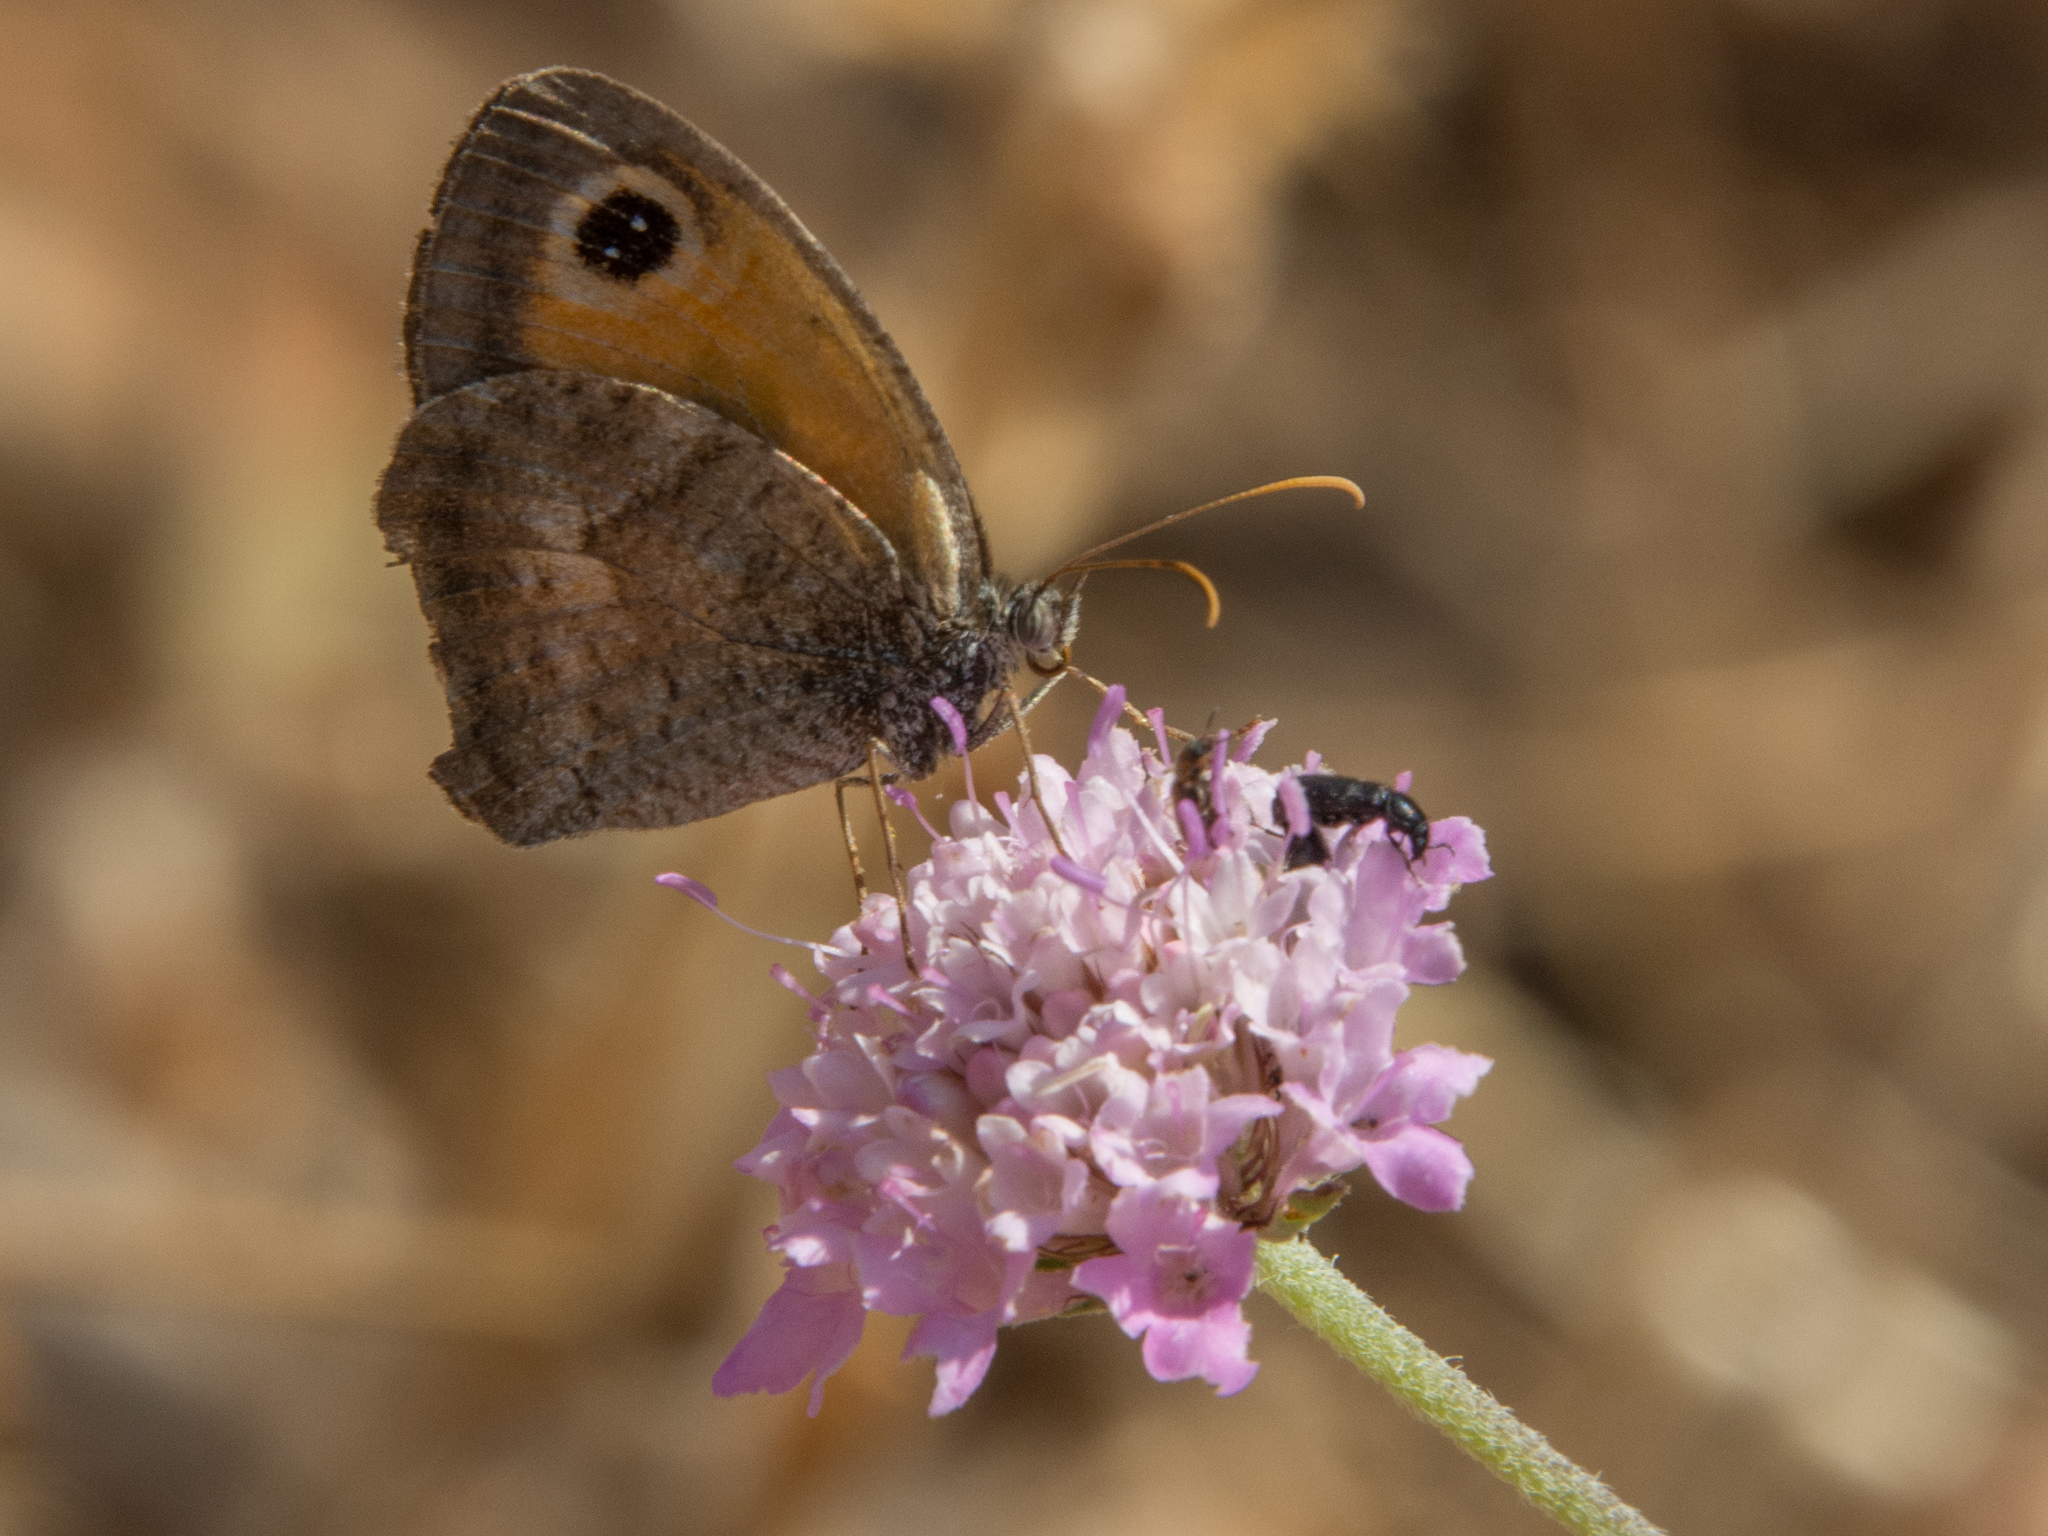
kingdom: Animalia
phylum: Arthropoda
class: Insecta
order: Lepidoptera
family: Nymphalidae
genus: Pyronia
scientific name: Pyronia cecilia
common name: Southern gatekeeper
